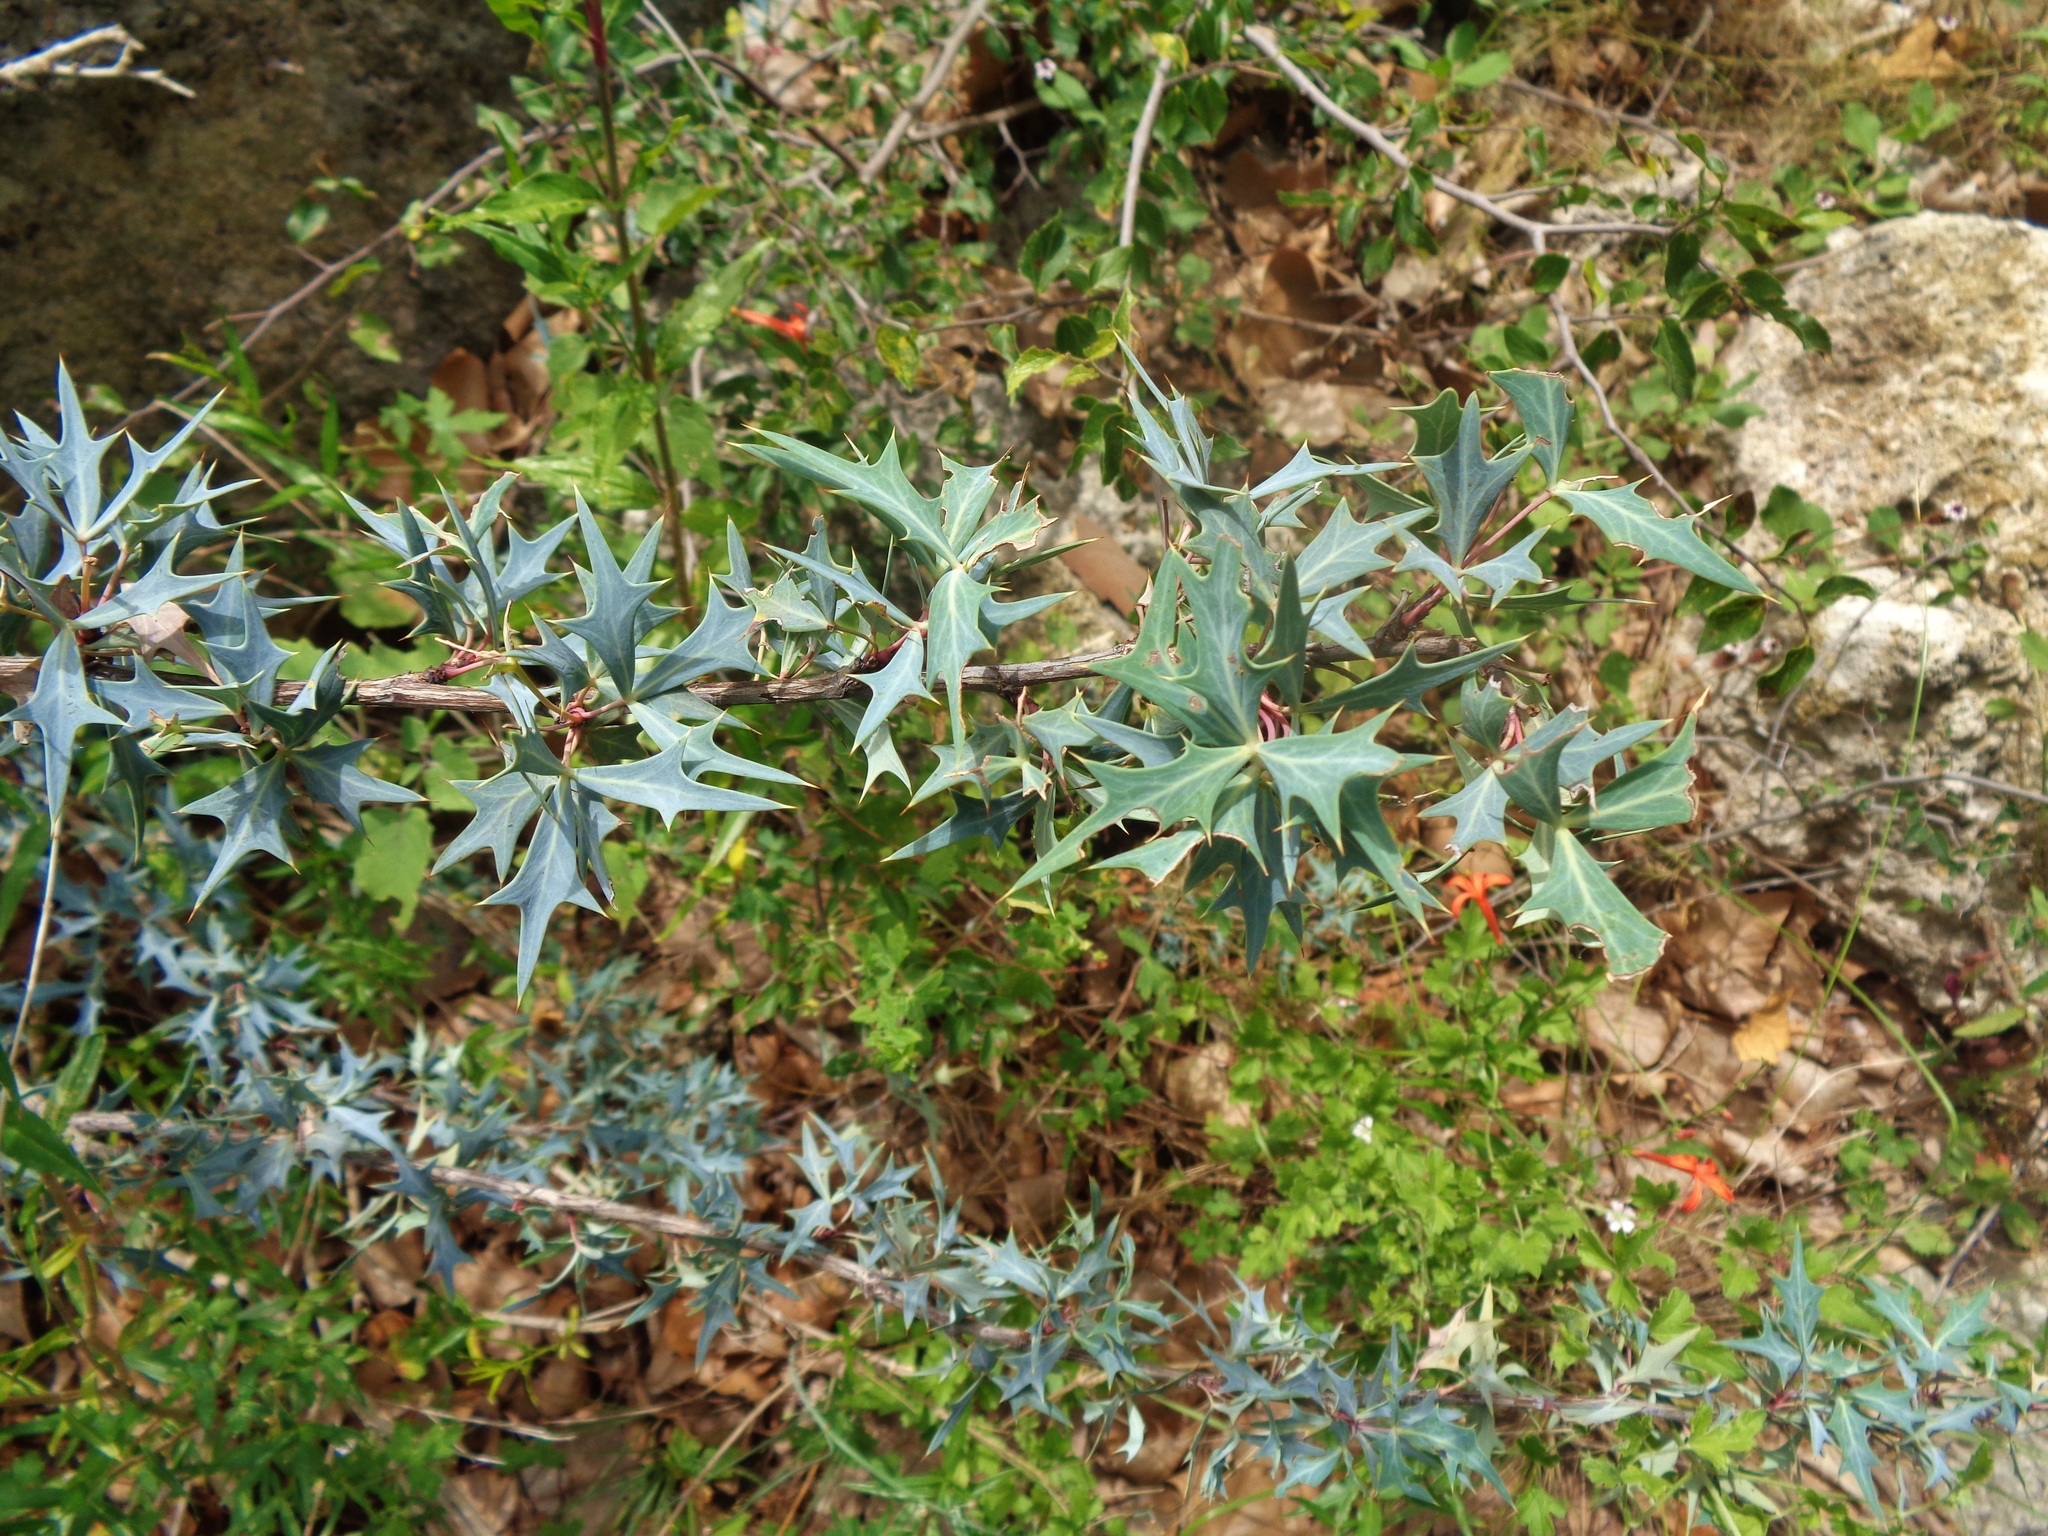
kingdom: Plantae
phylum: Tracheophyta
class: Magnoliopsida
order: Ranunculales
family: Berberidaceae
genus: Alloberberis
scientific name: Alloberberis trifoliolata
